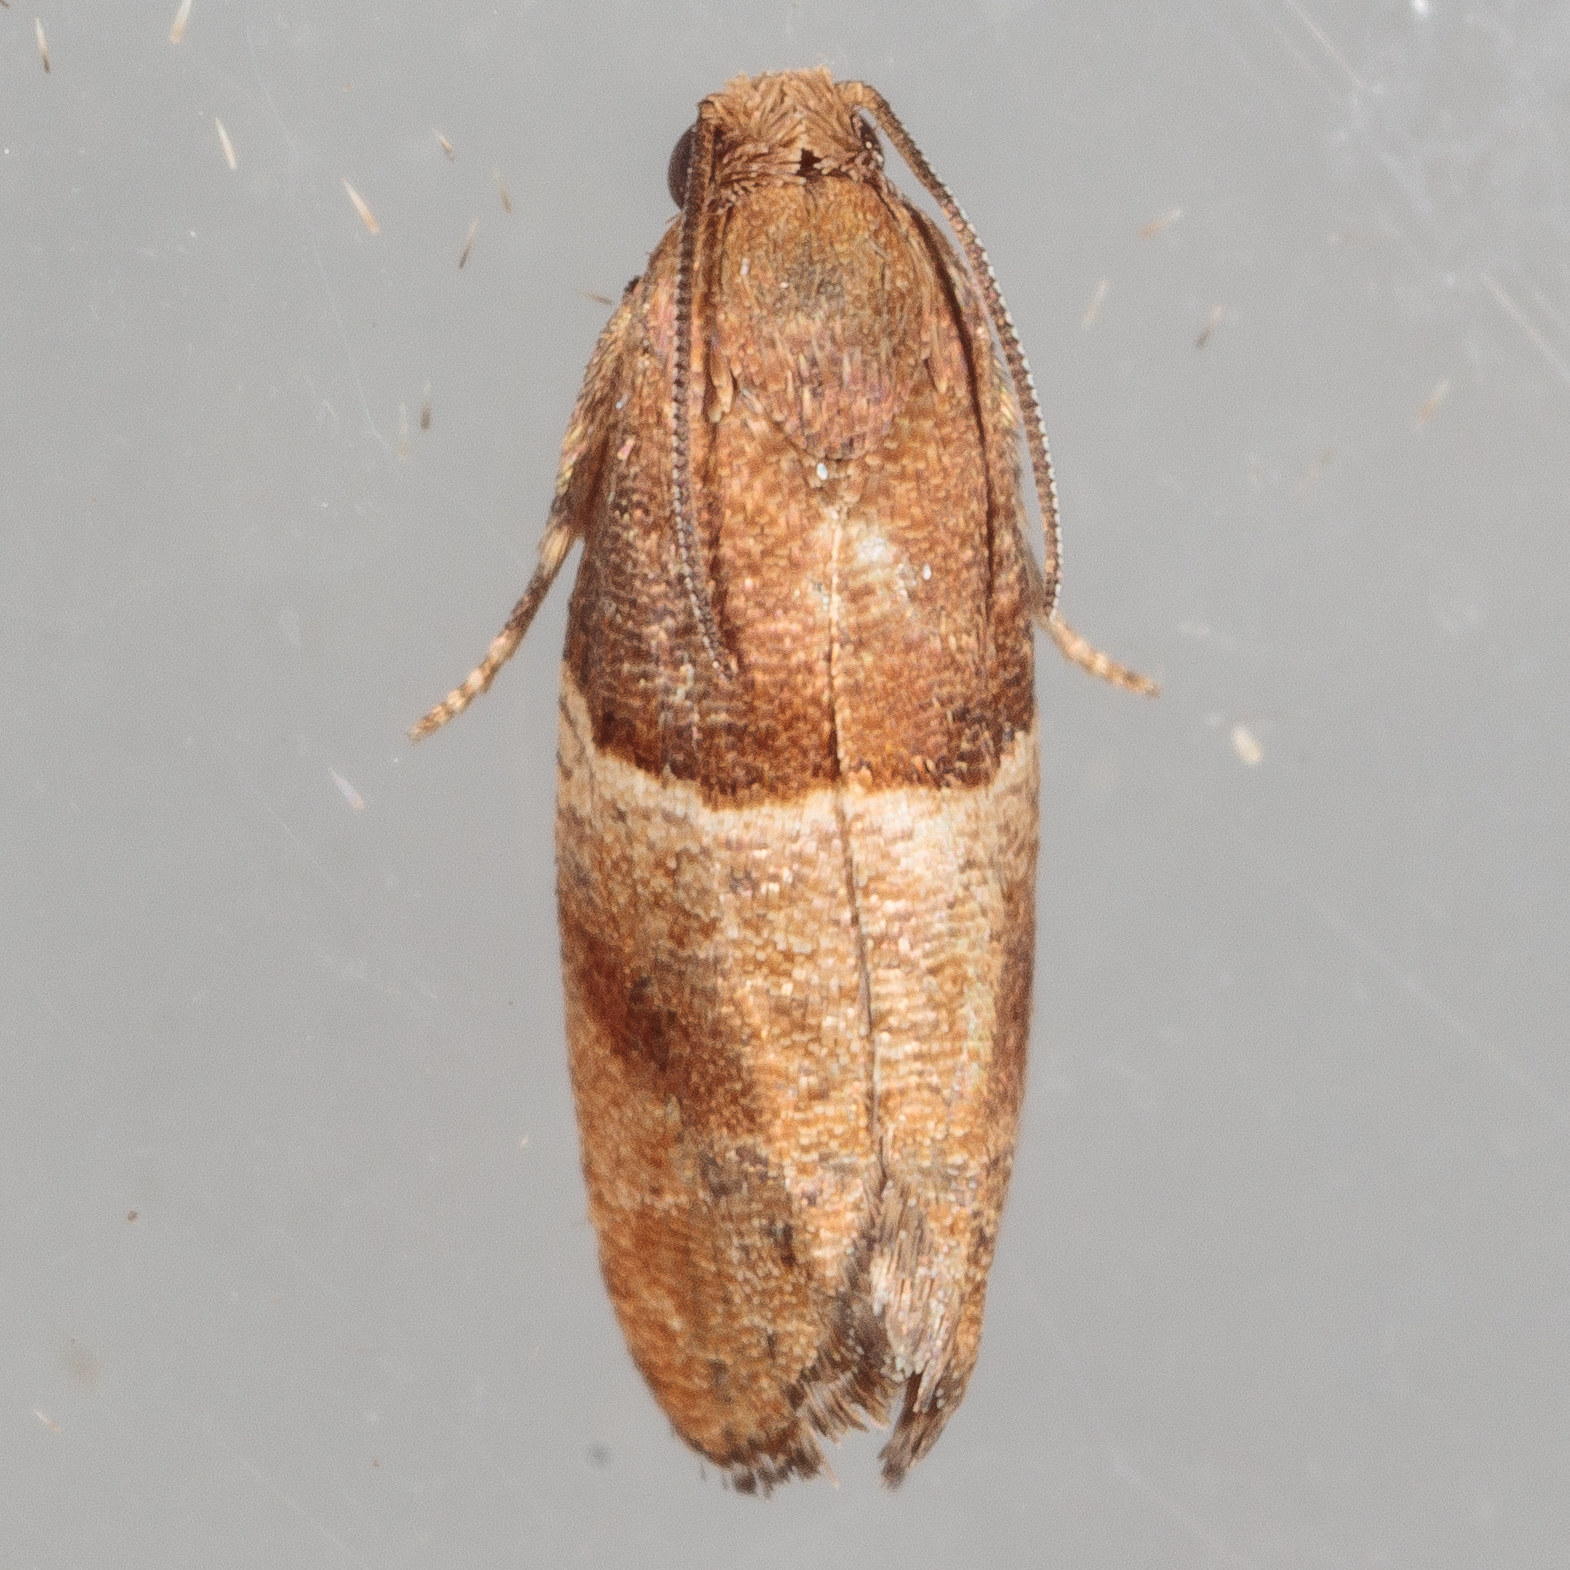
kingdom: Animalia
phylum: Arthropoda
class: Insecta
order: Lepidoptera
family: Tortricidae
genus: Larisa
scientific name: Larisa subsolana
